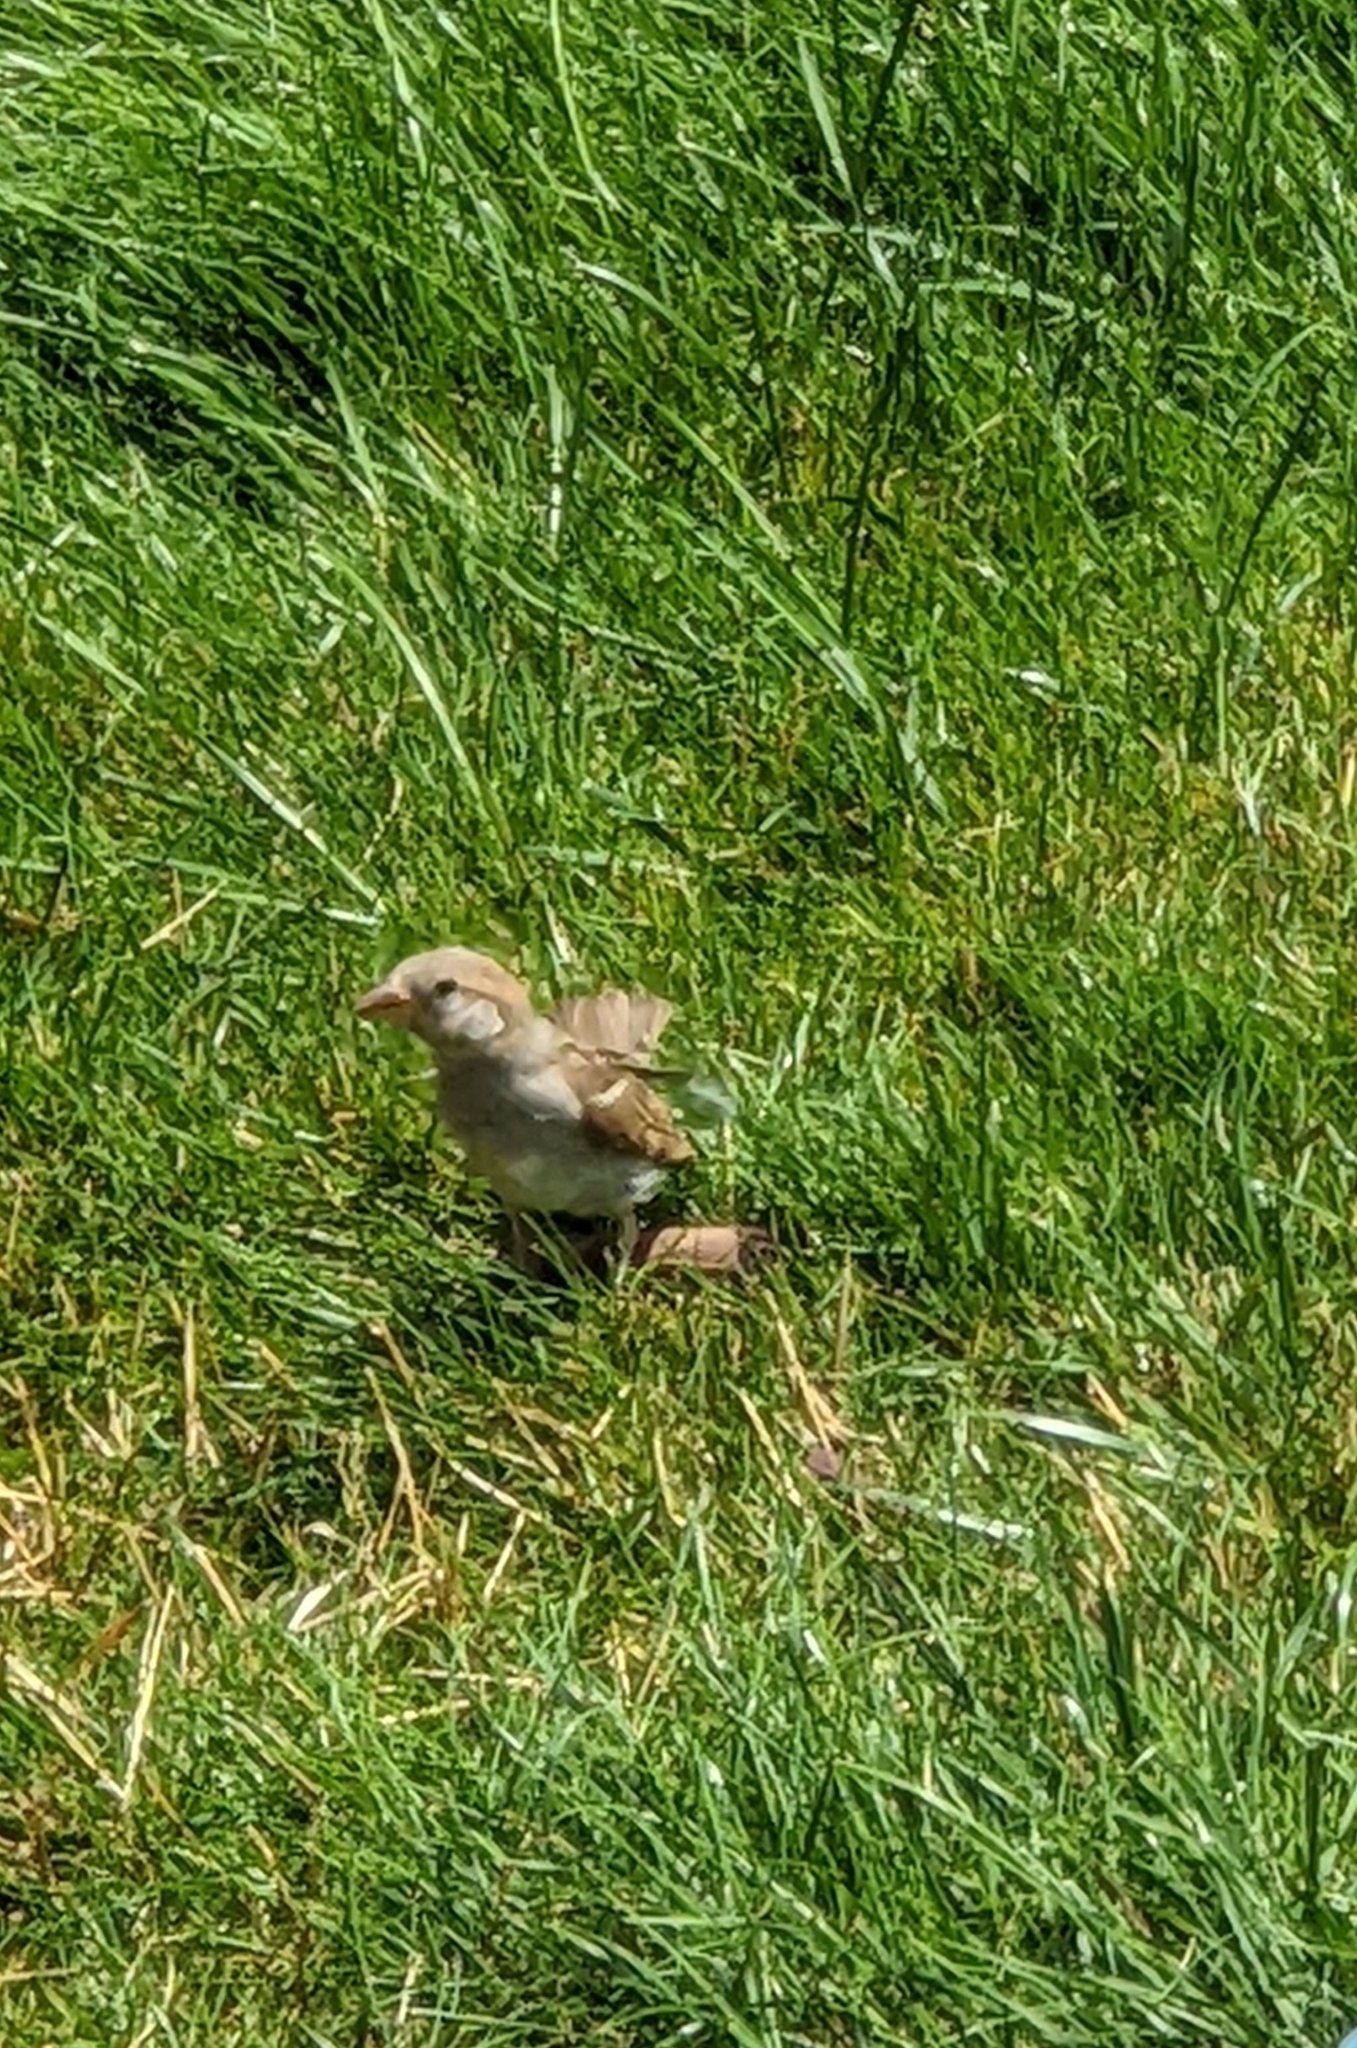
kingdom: Animalia
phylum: Chordata
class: Aves
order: Passeriformes
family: Passeridae
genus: Passer
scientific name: Passer domesticus
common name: House sparrow
